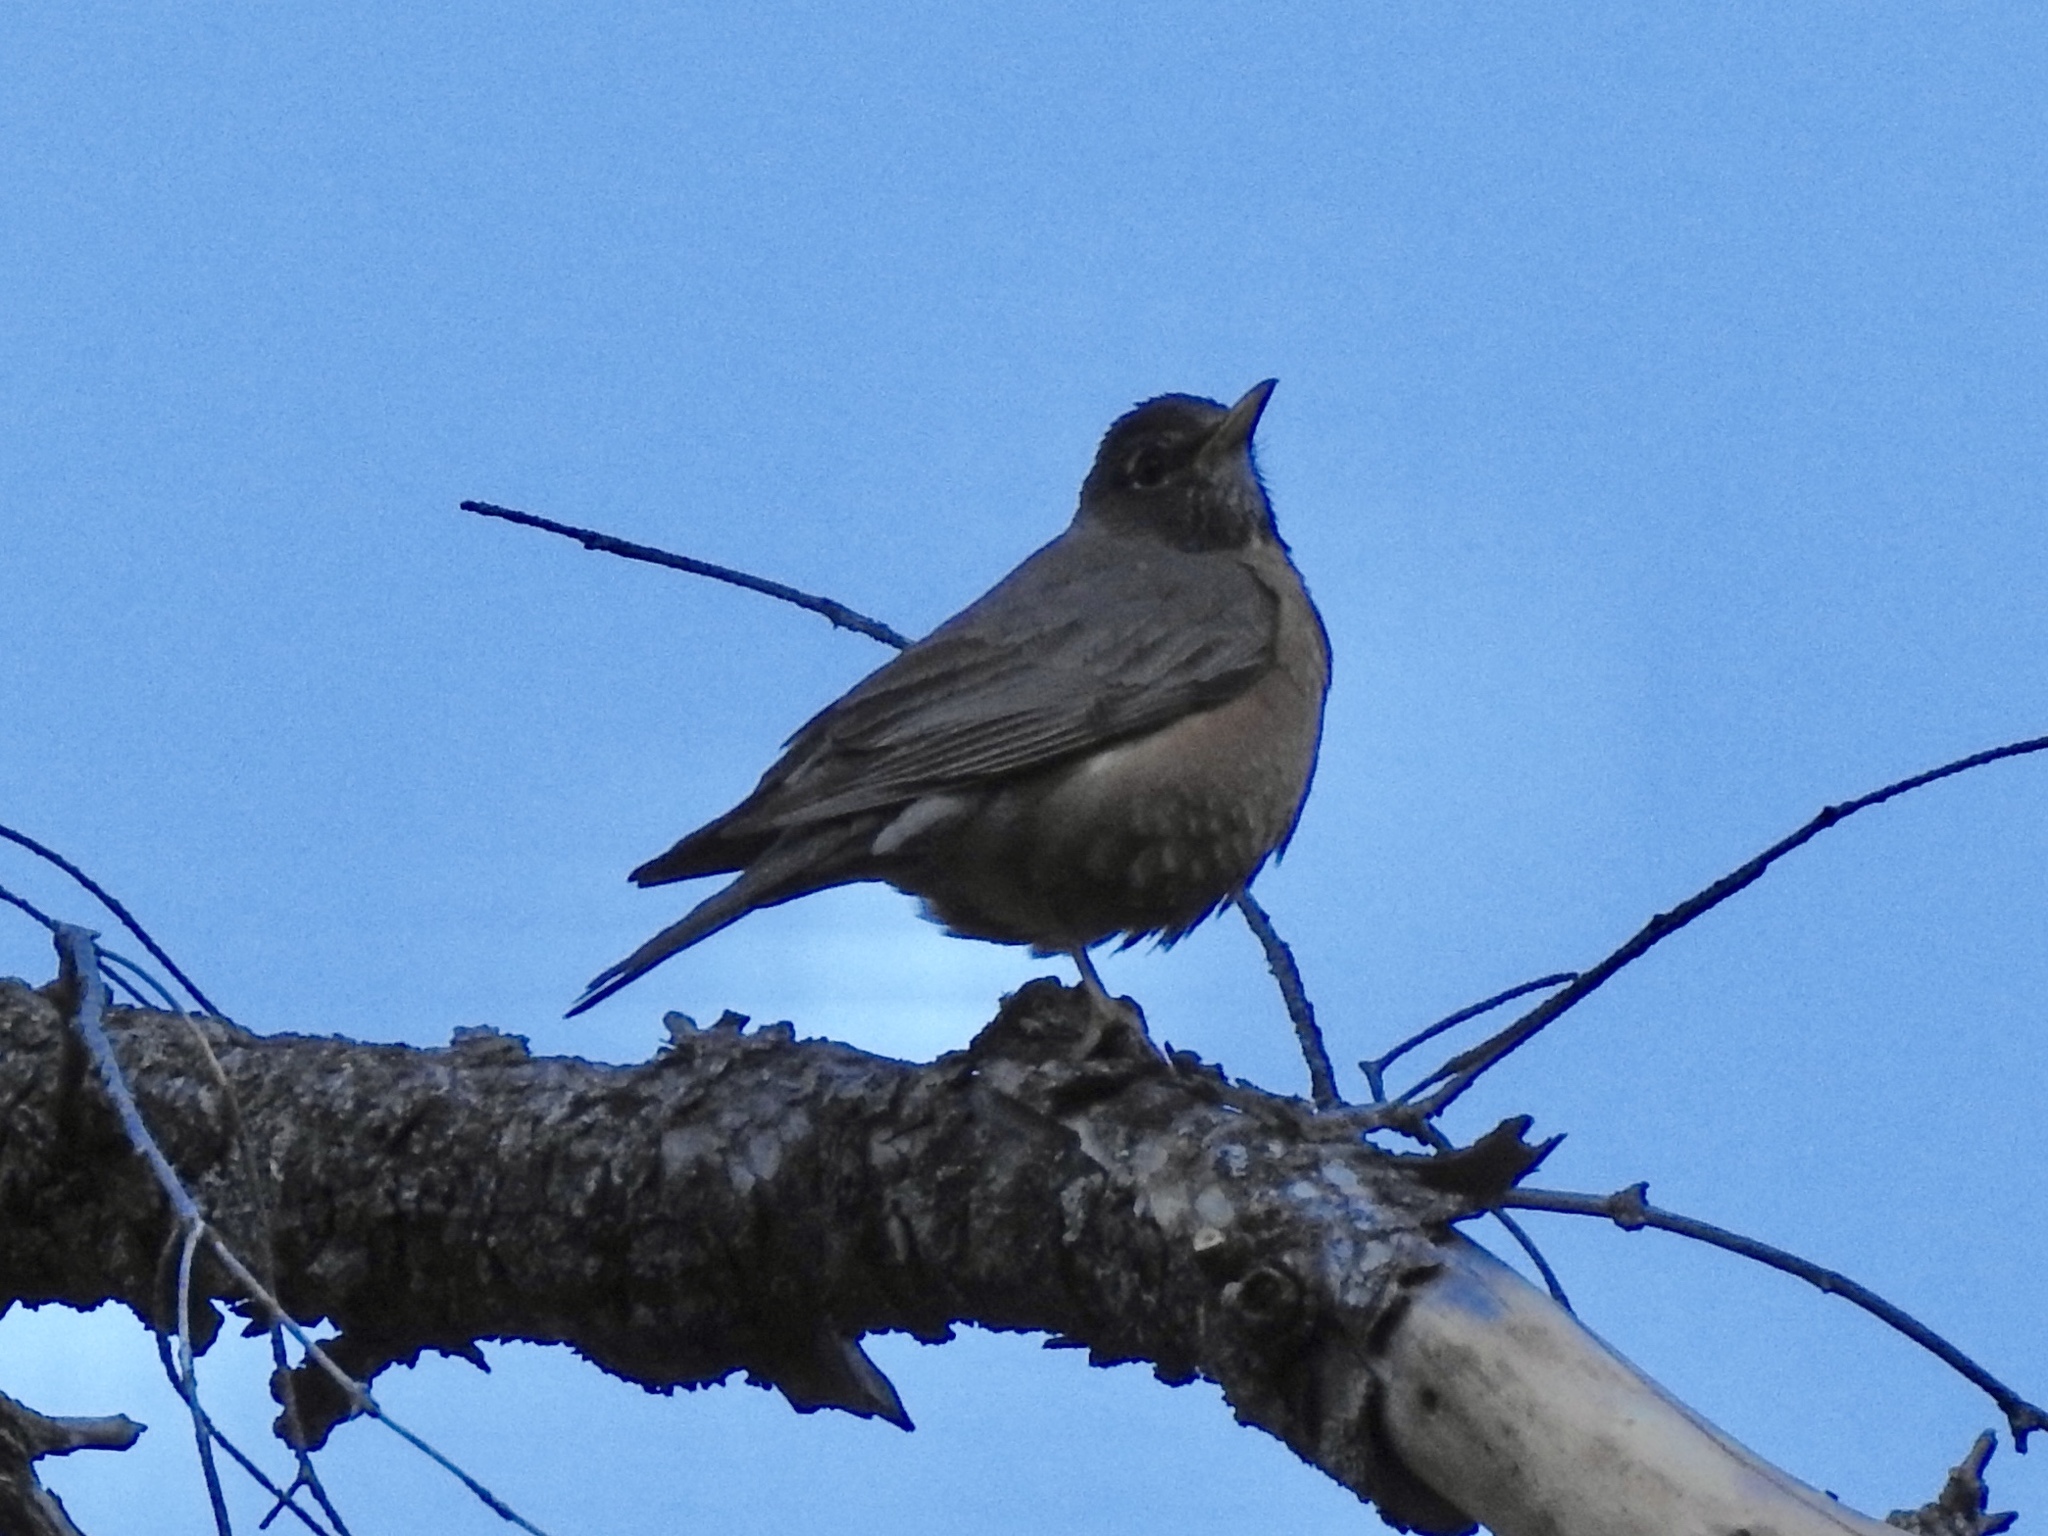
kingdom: Animalia
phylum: Chordata
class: Aves
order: Passeriformes
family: Turdidae
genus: Turdus
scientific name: Turdus migratorius
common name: American robin
